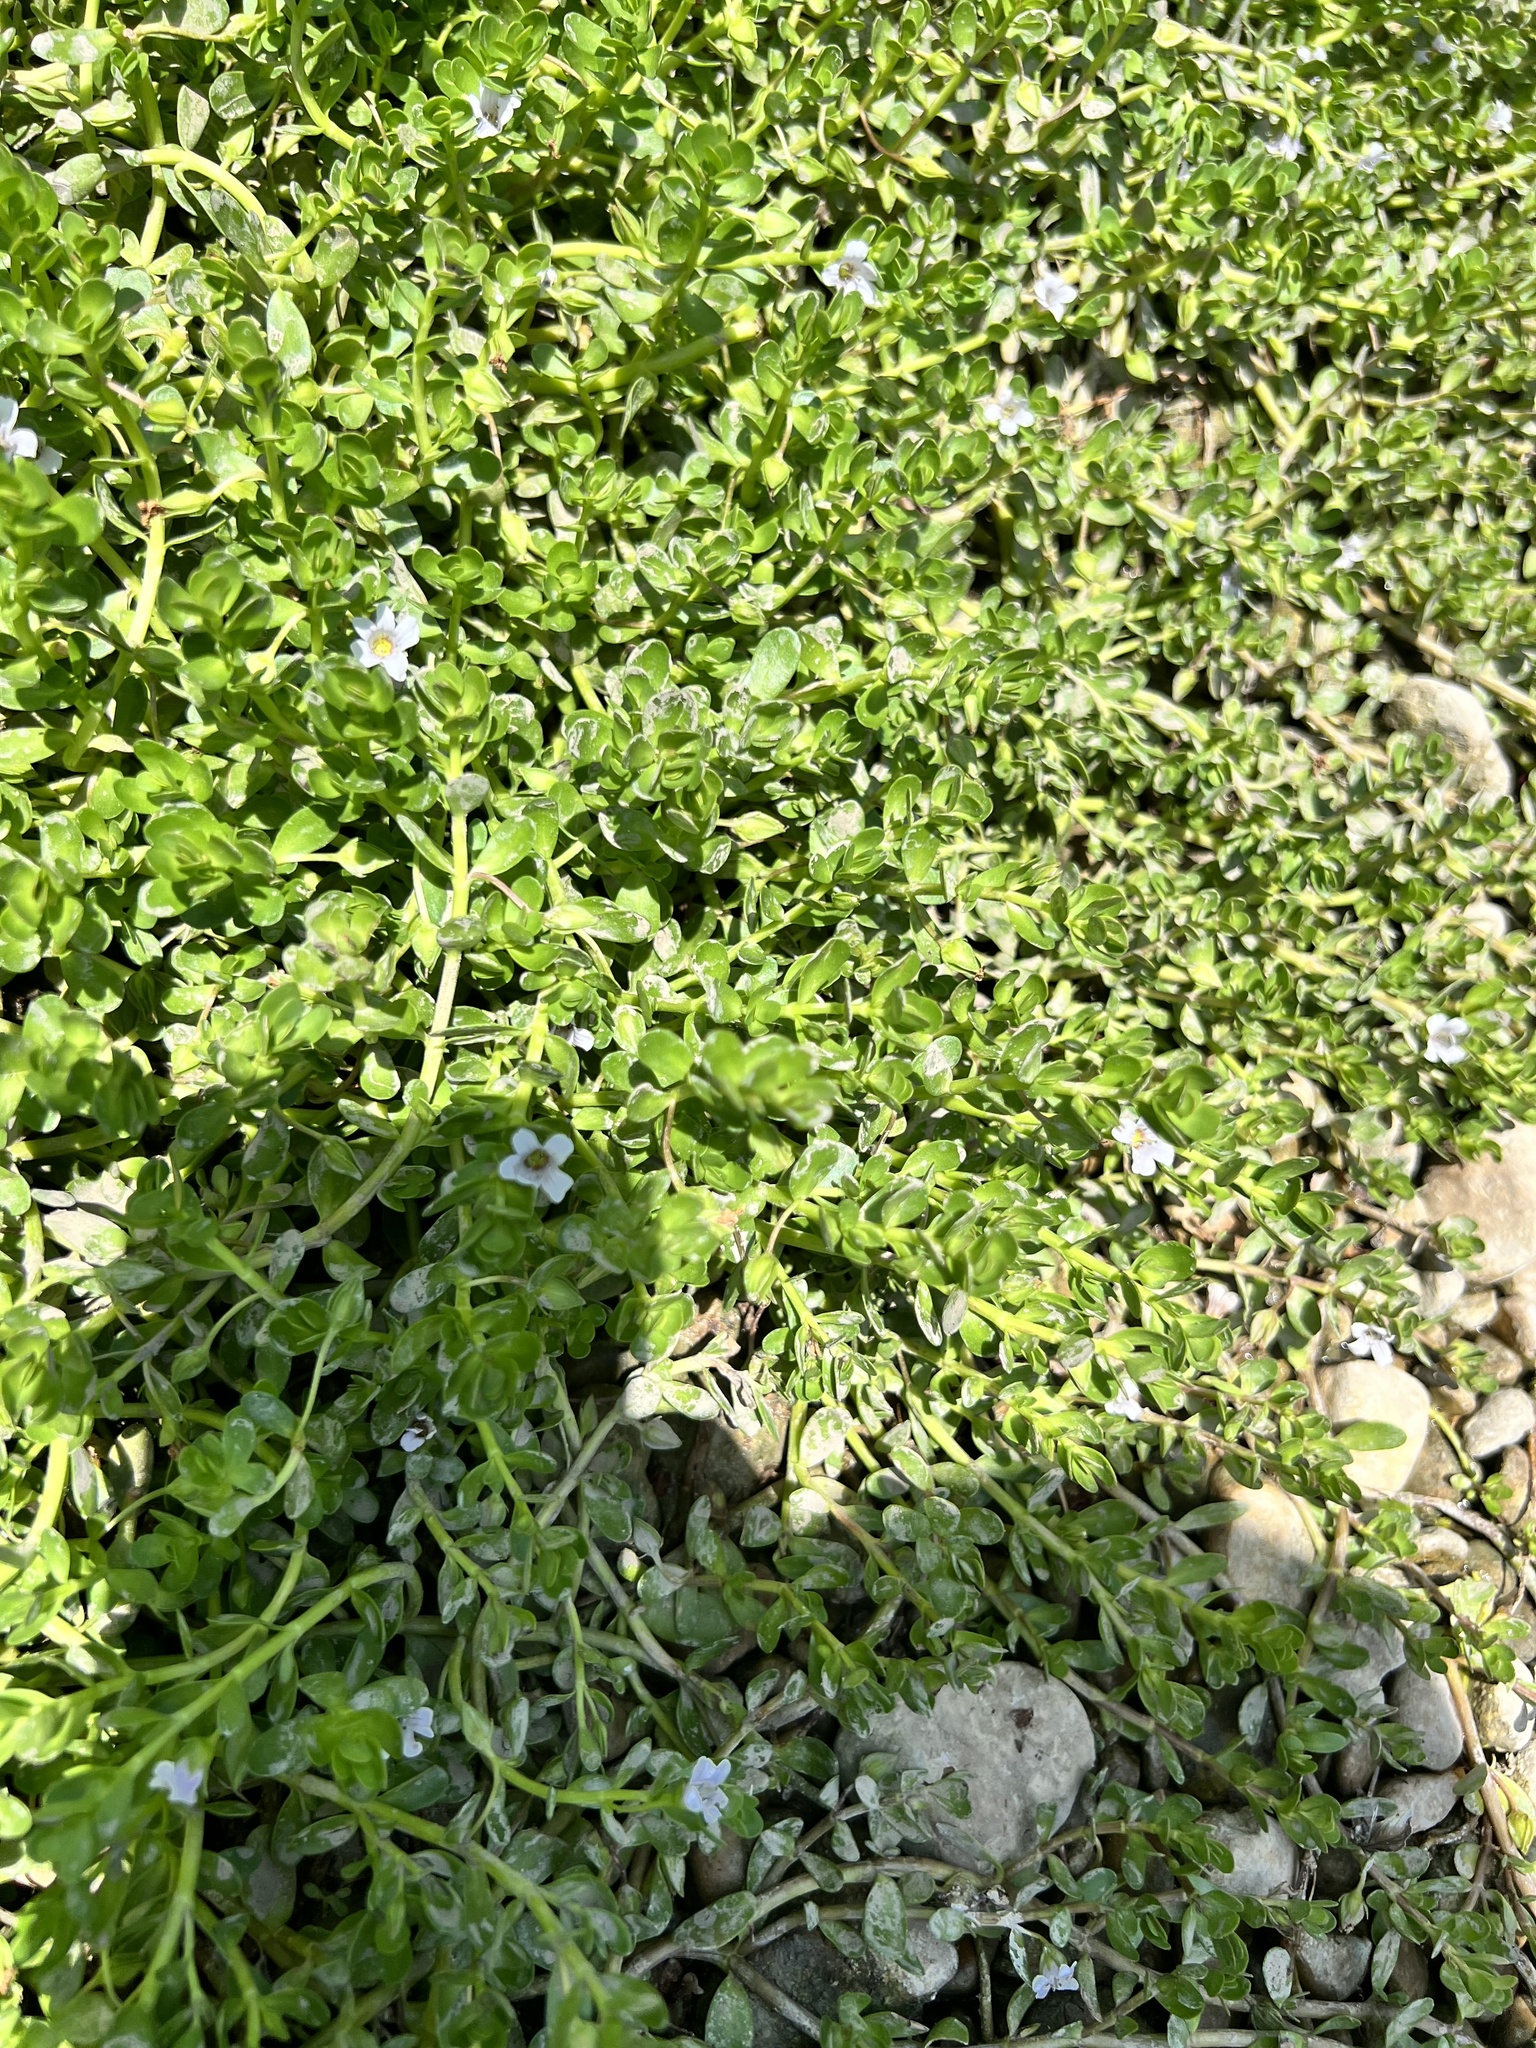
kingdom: Plantae
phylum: Tracheophyta
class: Magnoliopsida
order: Lamiales
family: Plantaginaceae
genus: Bacopa
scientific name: Bacopa monnieri
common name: Indian-pennywort
